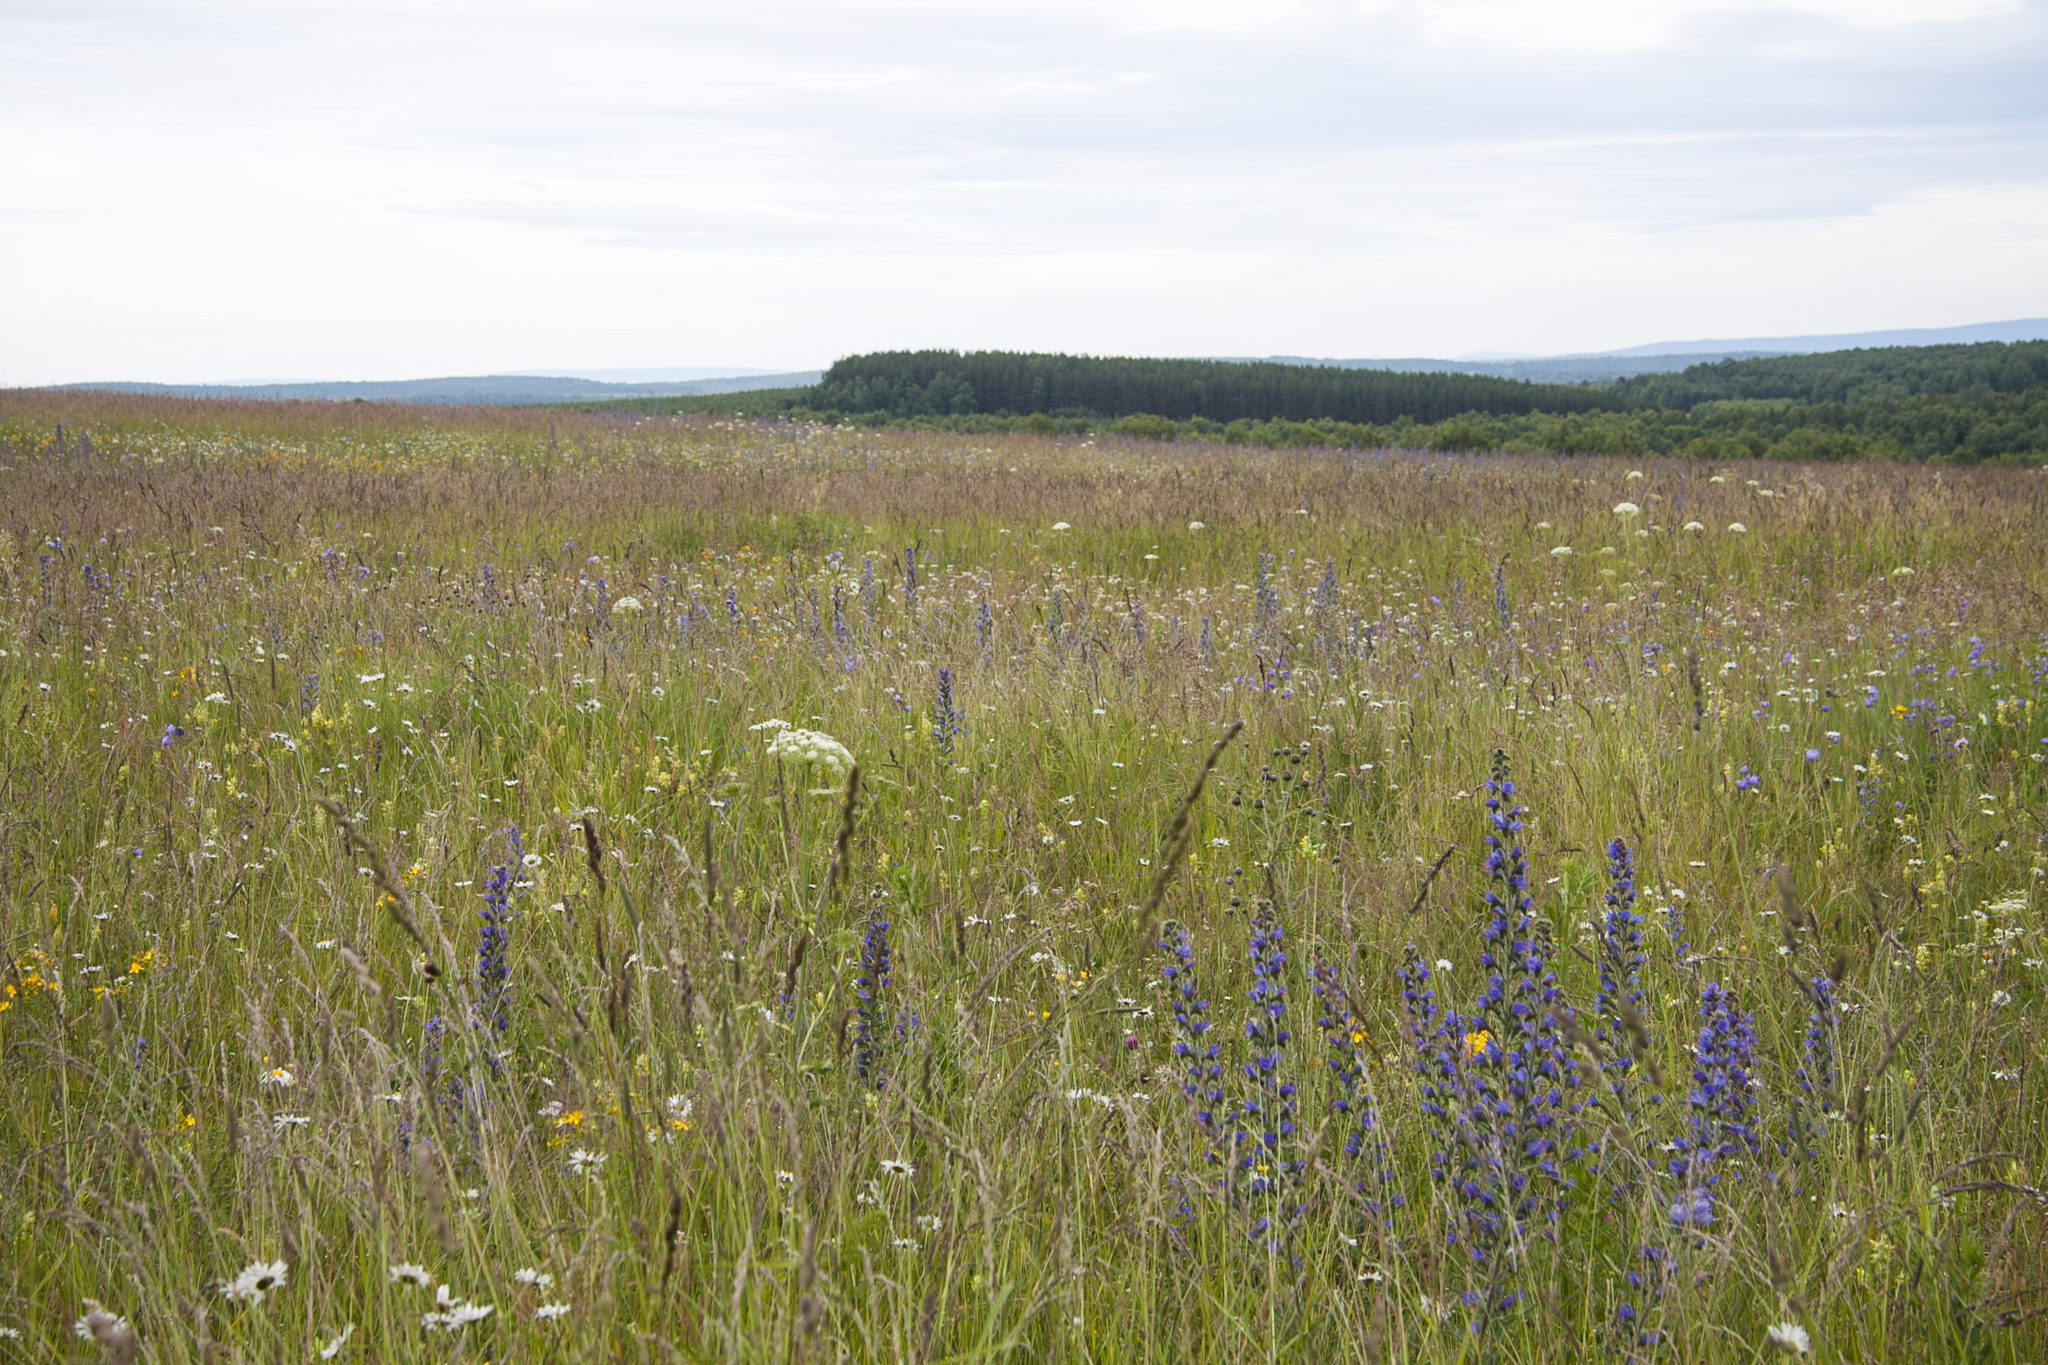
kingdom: Plantae
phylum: Tracheophyta
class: Magnoliopsida
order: Boraginales
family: Boraginaceae
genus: Echium
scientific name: Echium vulgare
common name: Common viper's bugloss
